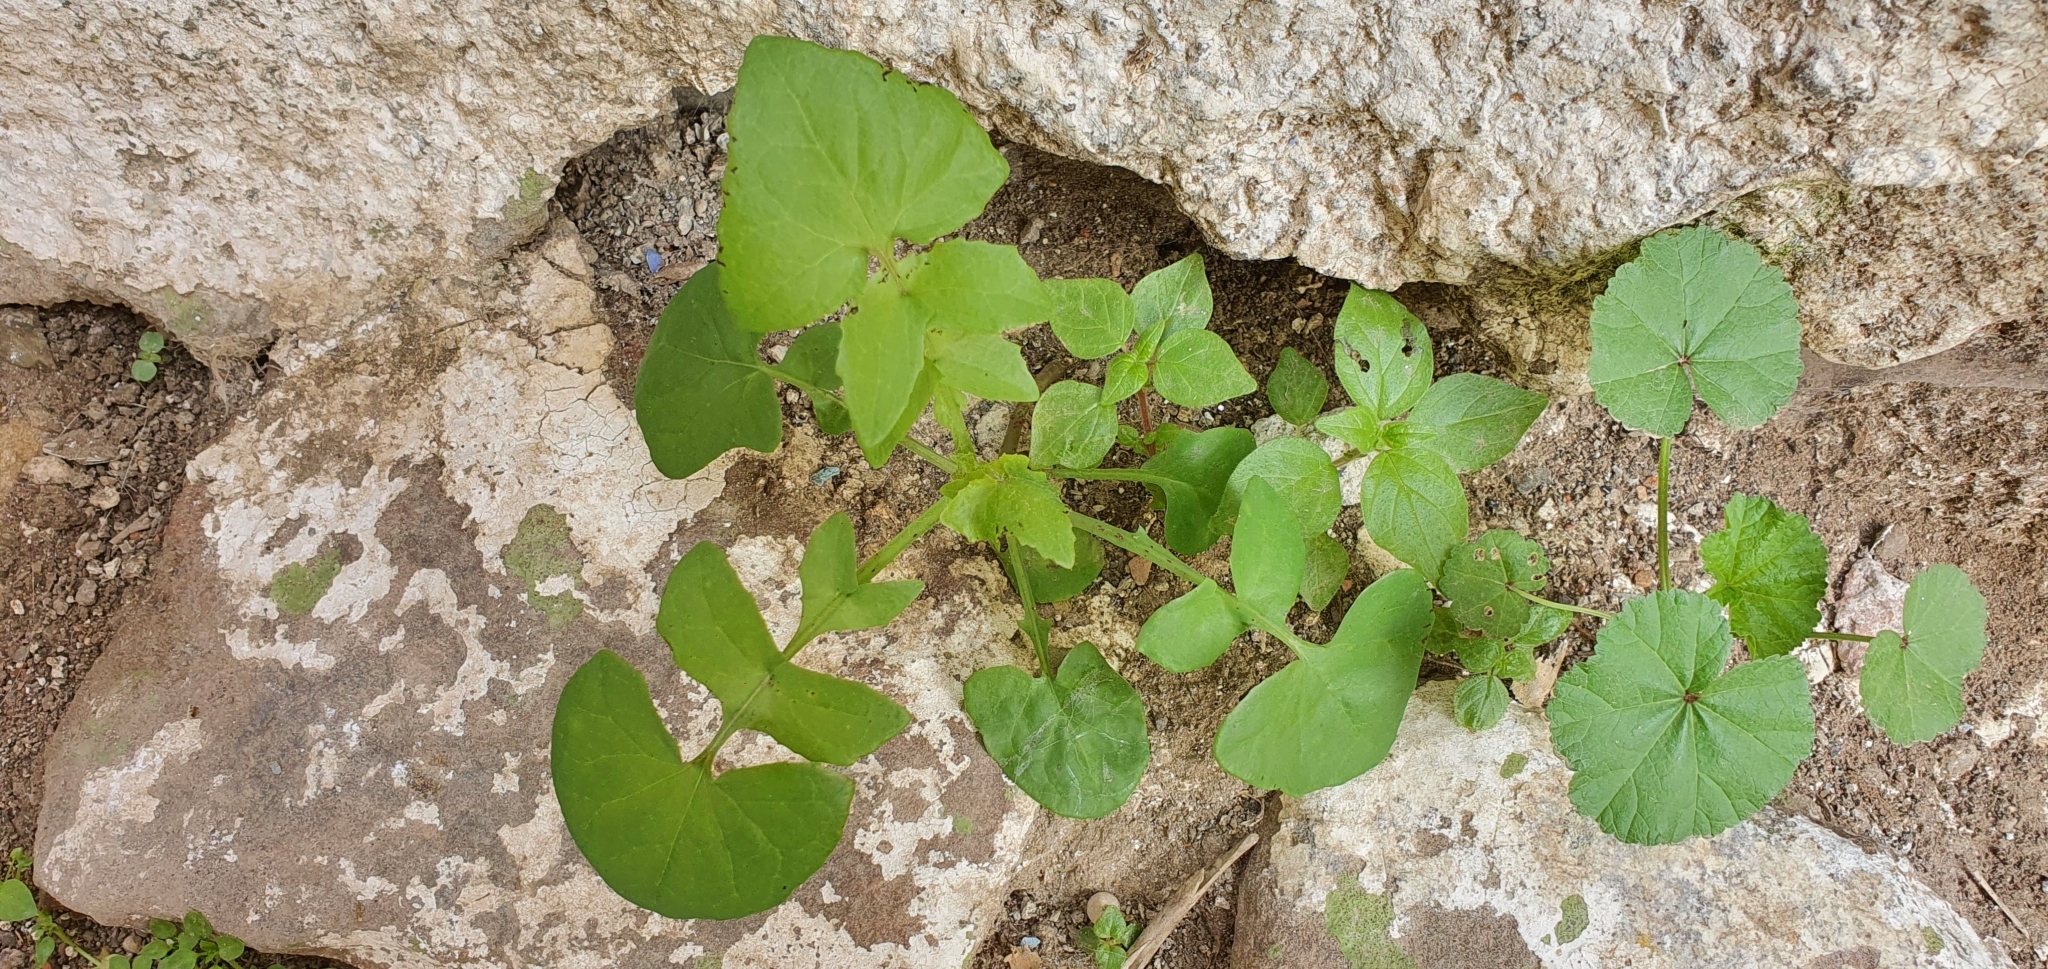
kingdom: Plantae
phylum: Tracheophyta
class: Magnoliopsida
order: Asterales
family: Asteraceae
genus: Sonchus
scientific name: Sonchus tenerrimus
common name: Clammy sowthistle
